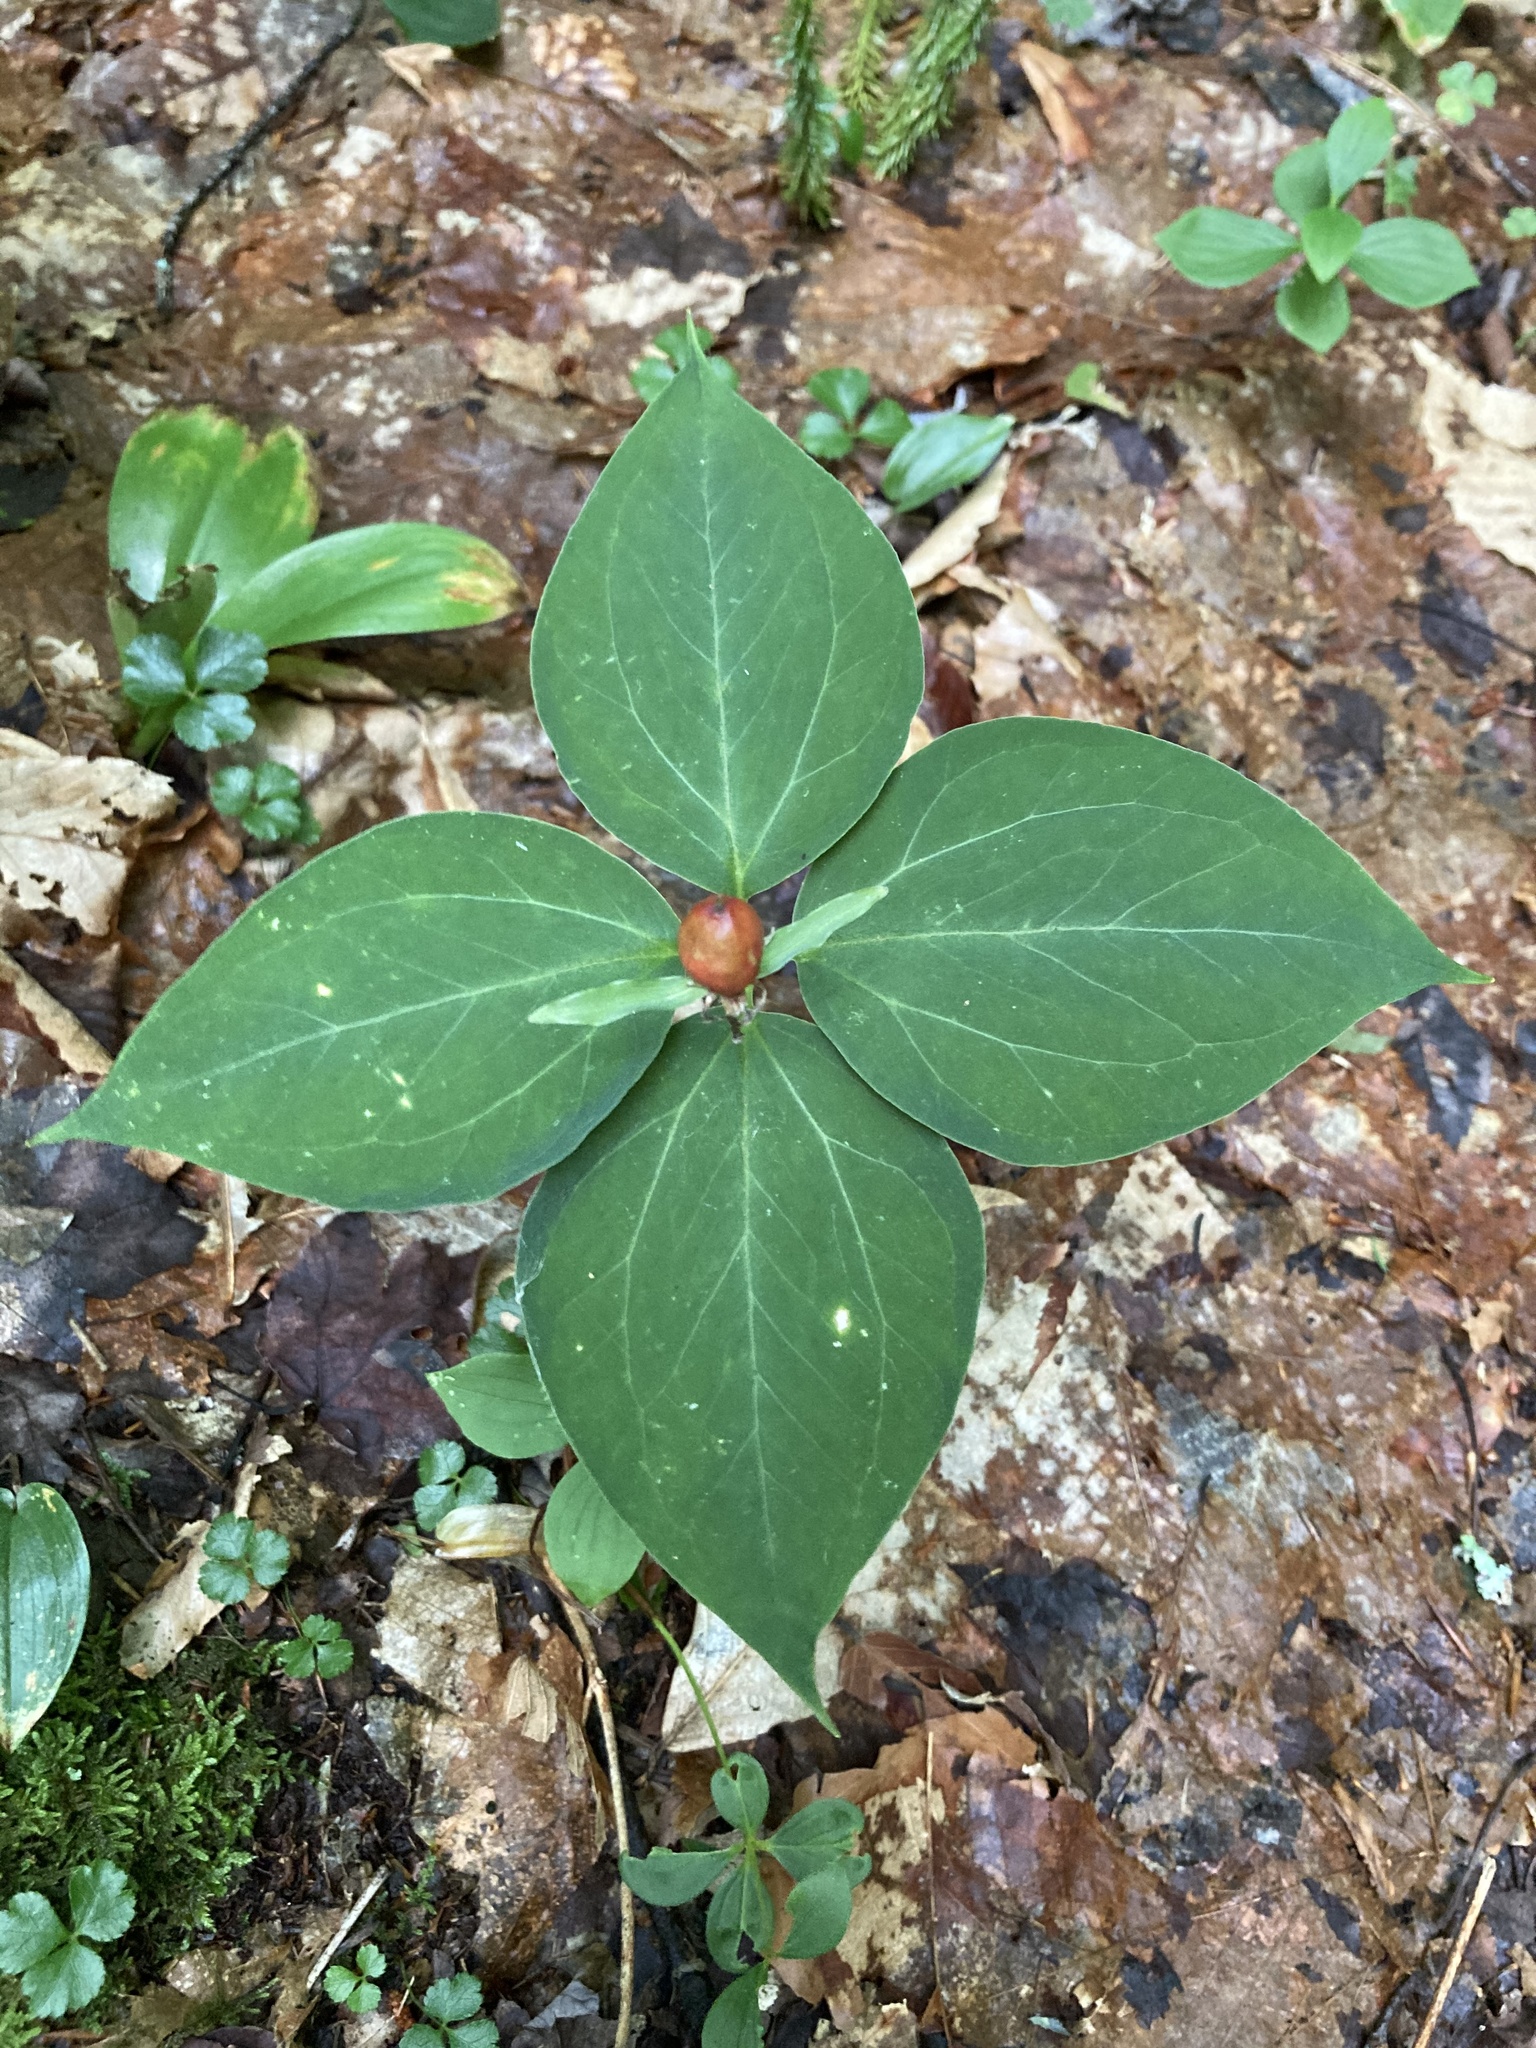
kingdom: Plantae
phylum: Tracheophyta
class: Liliopsida
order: Liliales
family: Melanthiaceae
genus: Trillium
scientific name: Trillium undulatum
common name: Paint trillium
